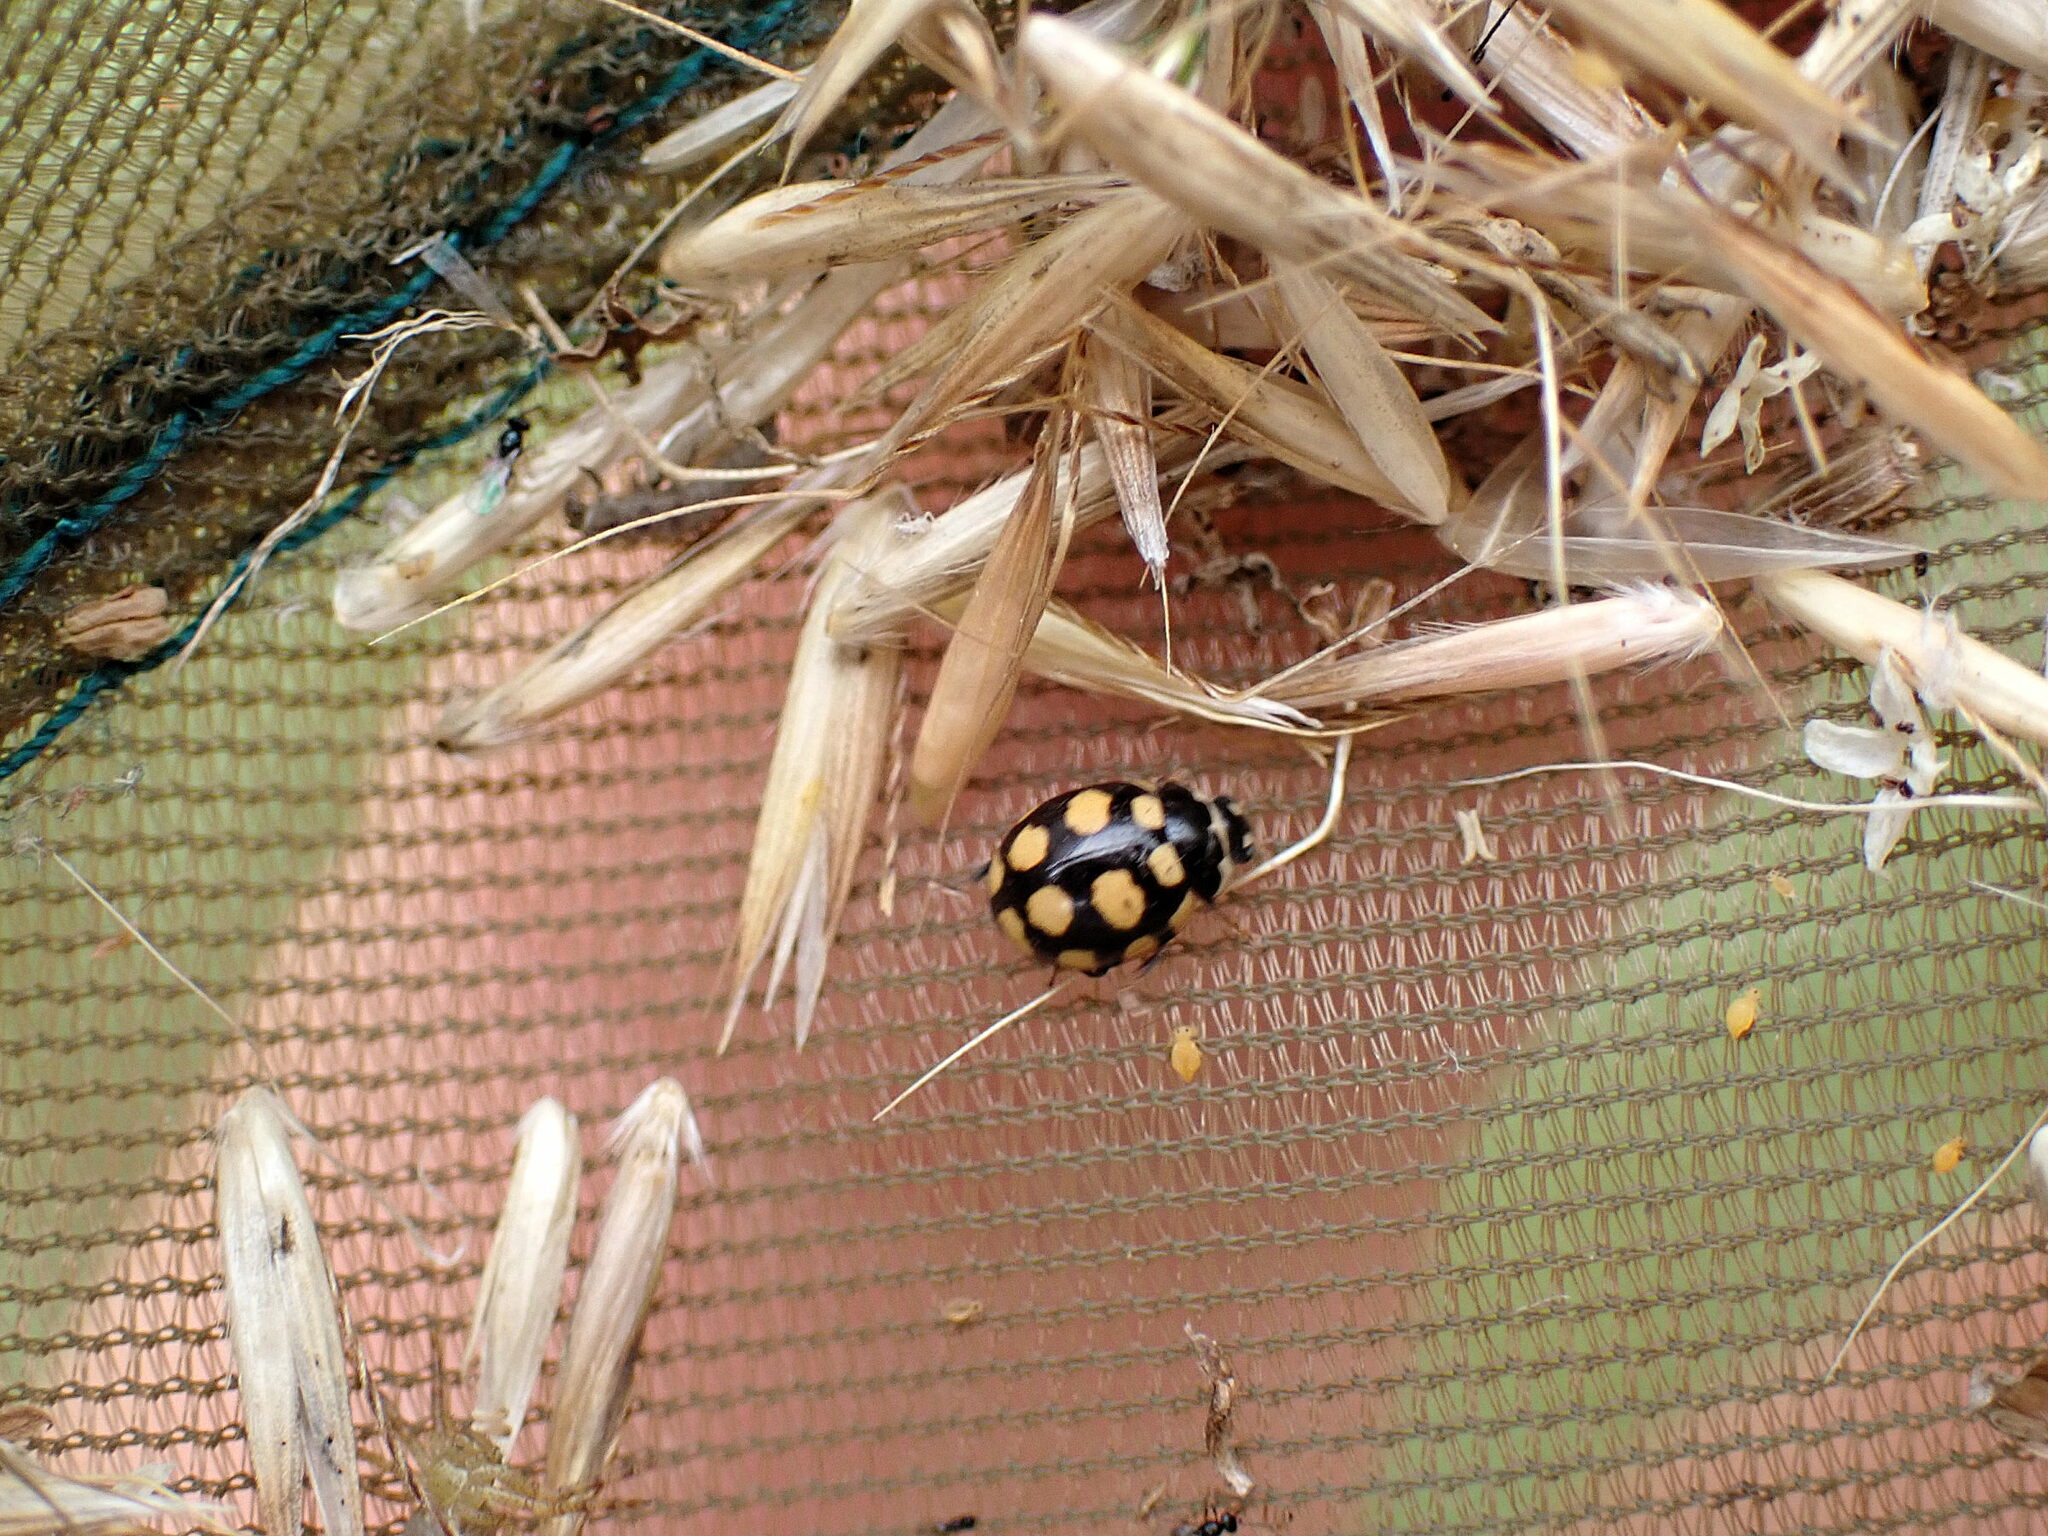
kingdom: Animalia
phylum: Arthropoda
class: Insecta
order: Coleoptera
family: Coccinellidae
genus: Coccinula
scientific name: Coccinula quatuordecimpustulata
